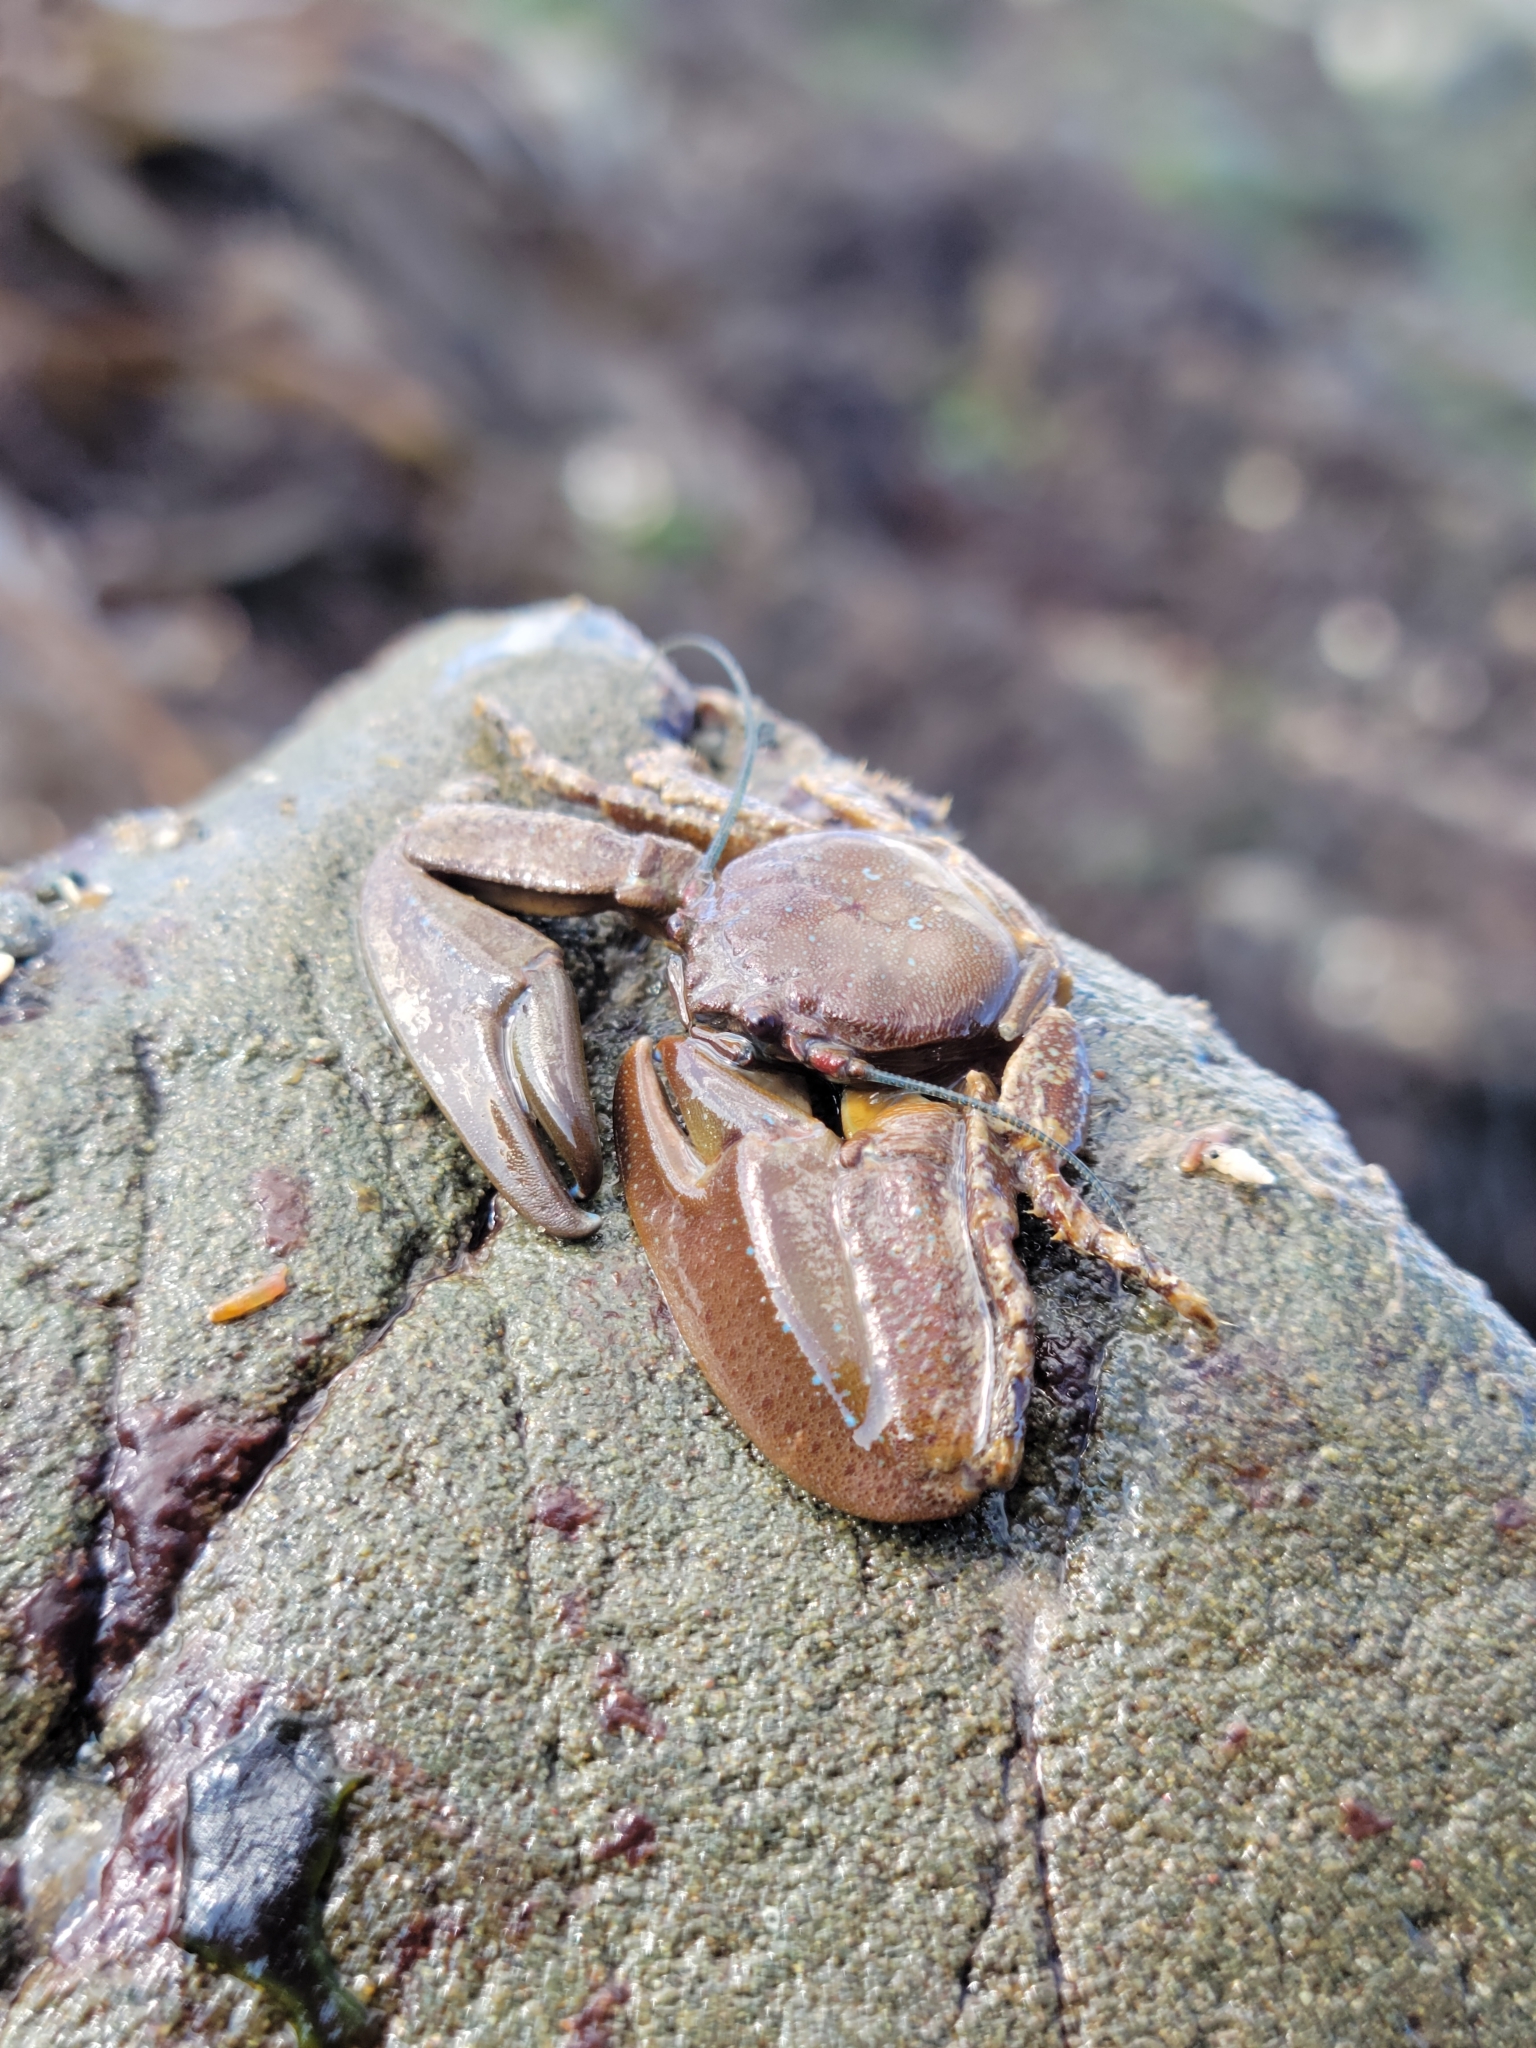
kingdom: Animalia
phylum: Arthropoda
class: Malacostraca
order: Decapoda
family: Porcellanidae
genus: Petrolisthes
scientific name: Petrolisthes manimaculis
